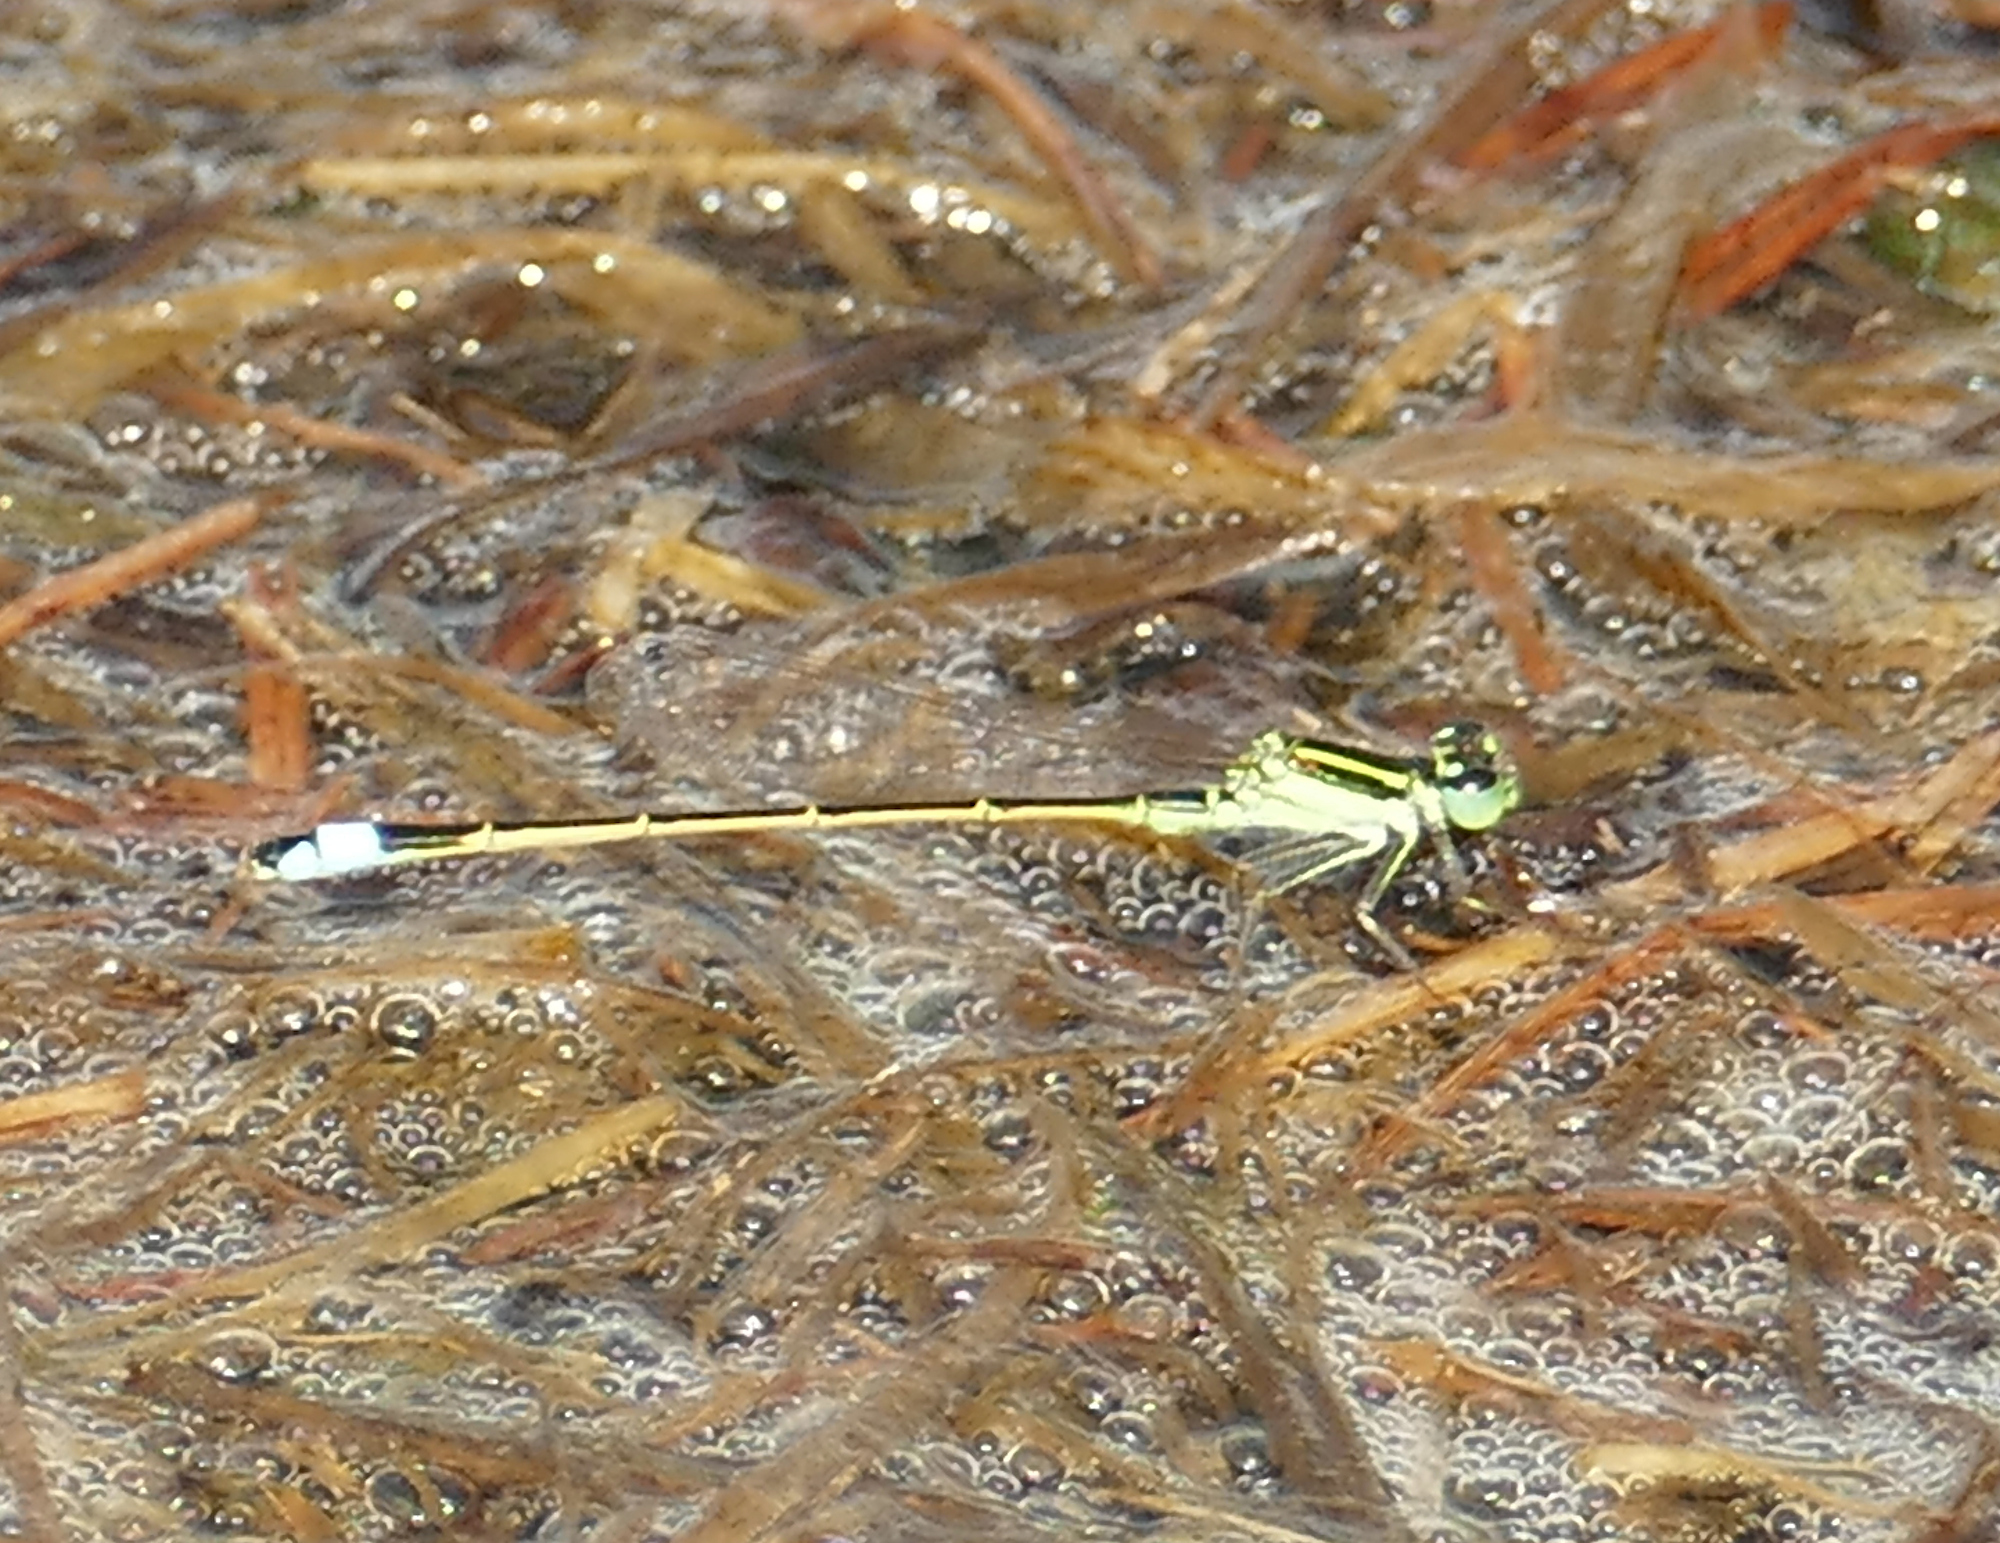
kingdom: Animalia
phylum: Arthropoda
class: Insecta
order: Odonata
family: Coenagrionidae
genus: Ischnura
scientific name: Ischnura ramburii
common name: Rambur's forktail
